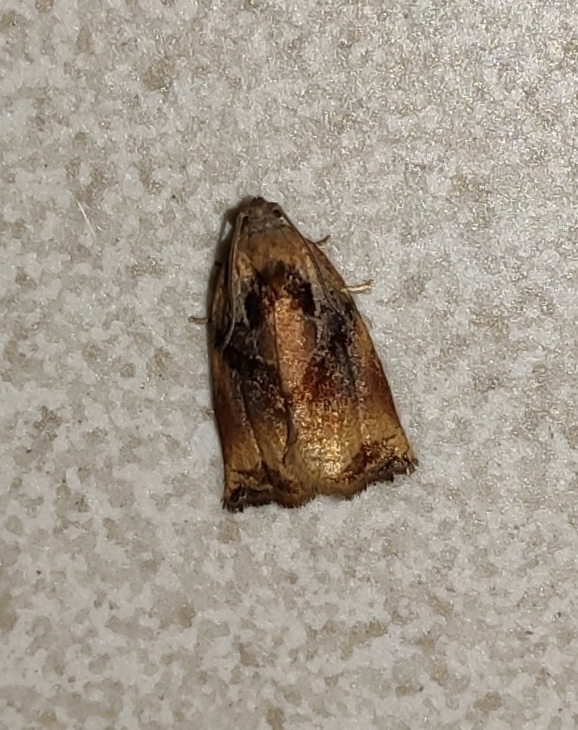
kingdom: Animalia
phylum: Arthropoda
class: Insecta
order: Lepidoptera
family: Tortricidae
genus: Archips
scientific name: Archips podana
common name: Large fruit-tree tortrix
